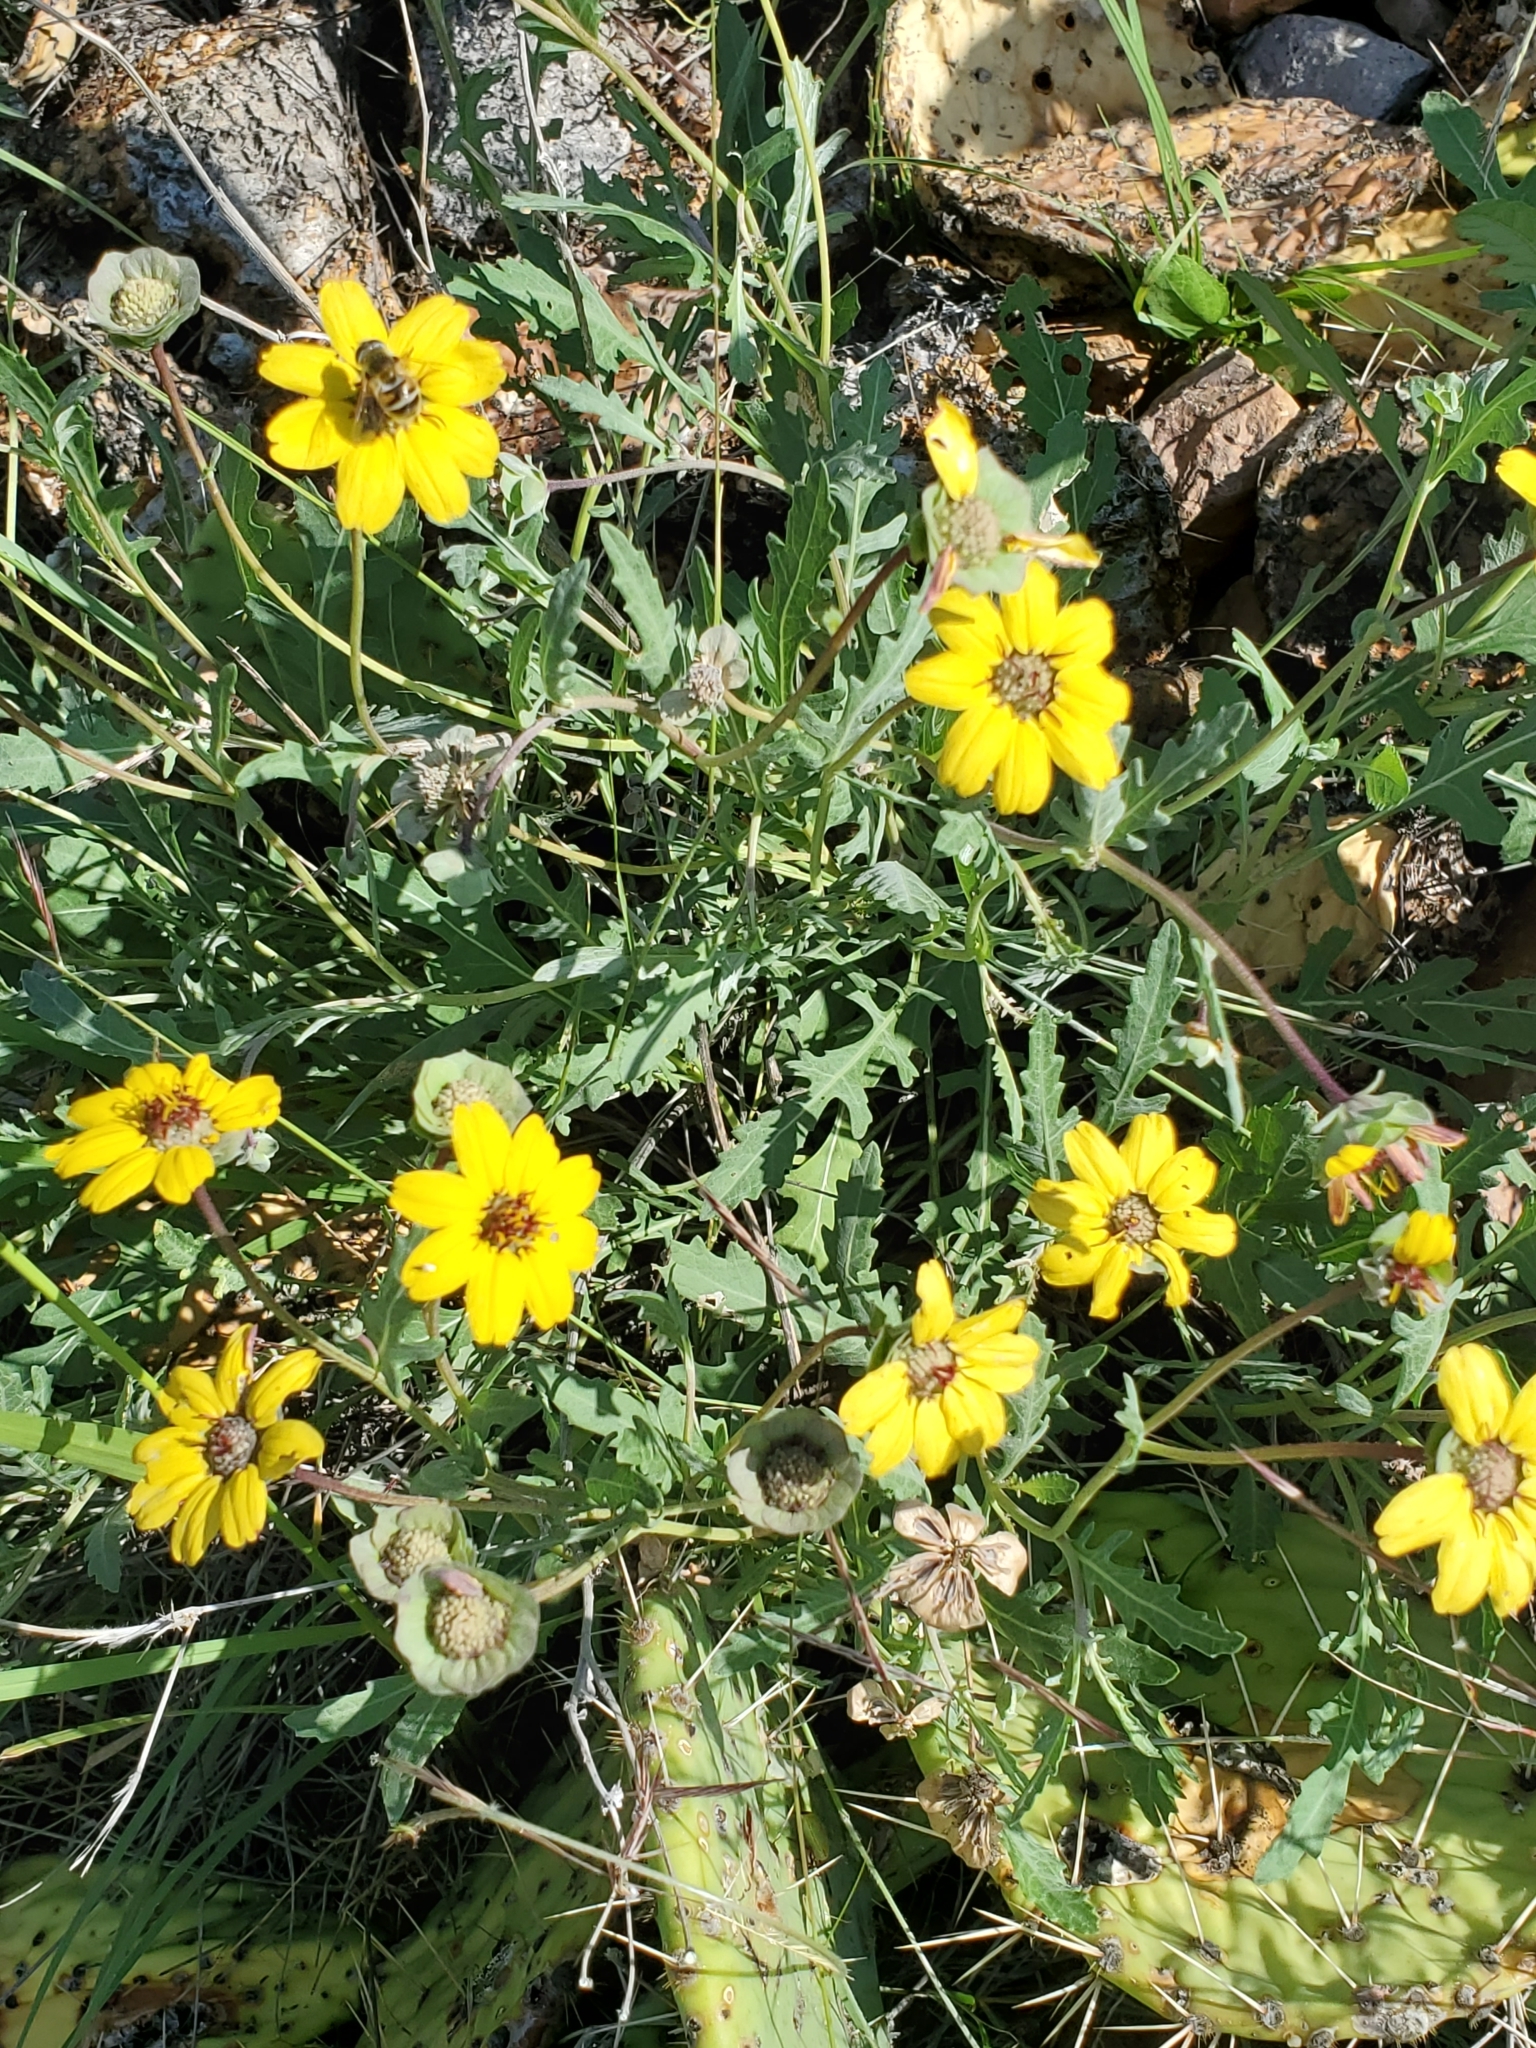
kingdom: Plantae
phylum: Tracheophyta
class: Magnoliopsida
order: Asterales
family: Asteraceae
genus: Berlandiera
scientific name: Berlandiera lyrata
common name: Chocolate-flower
